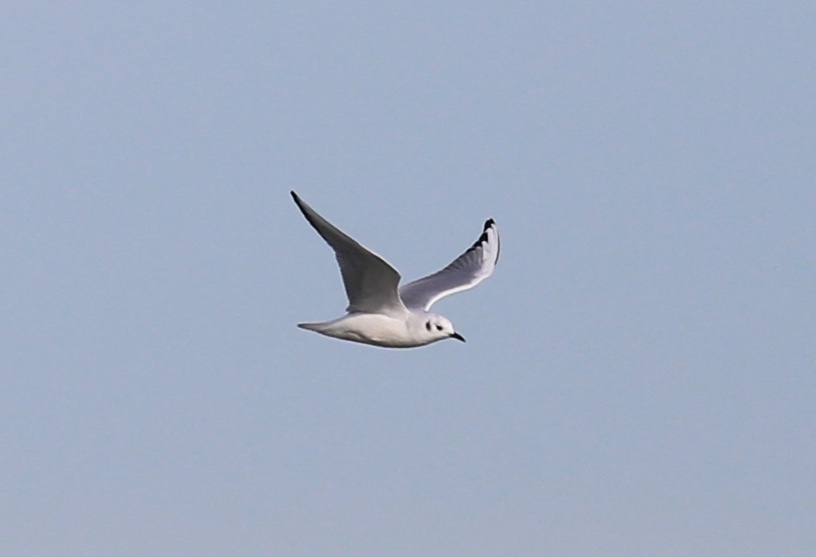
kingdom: Animalia
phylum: Chordata
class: Aves
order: Charadriiformes
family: Laridae
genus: Chroicocephalus
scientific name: Chroicocephalus philadelphia
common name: Bonaparte's gull
